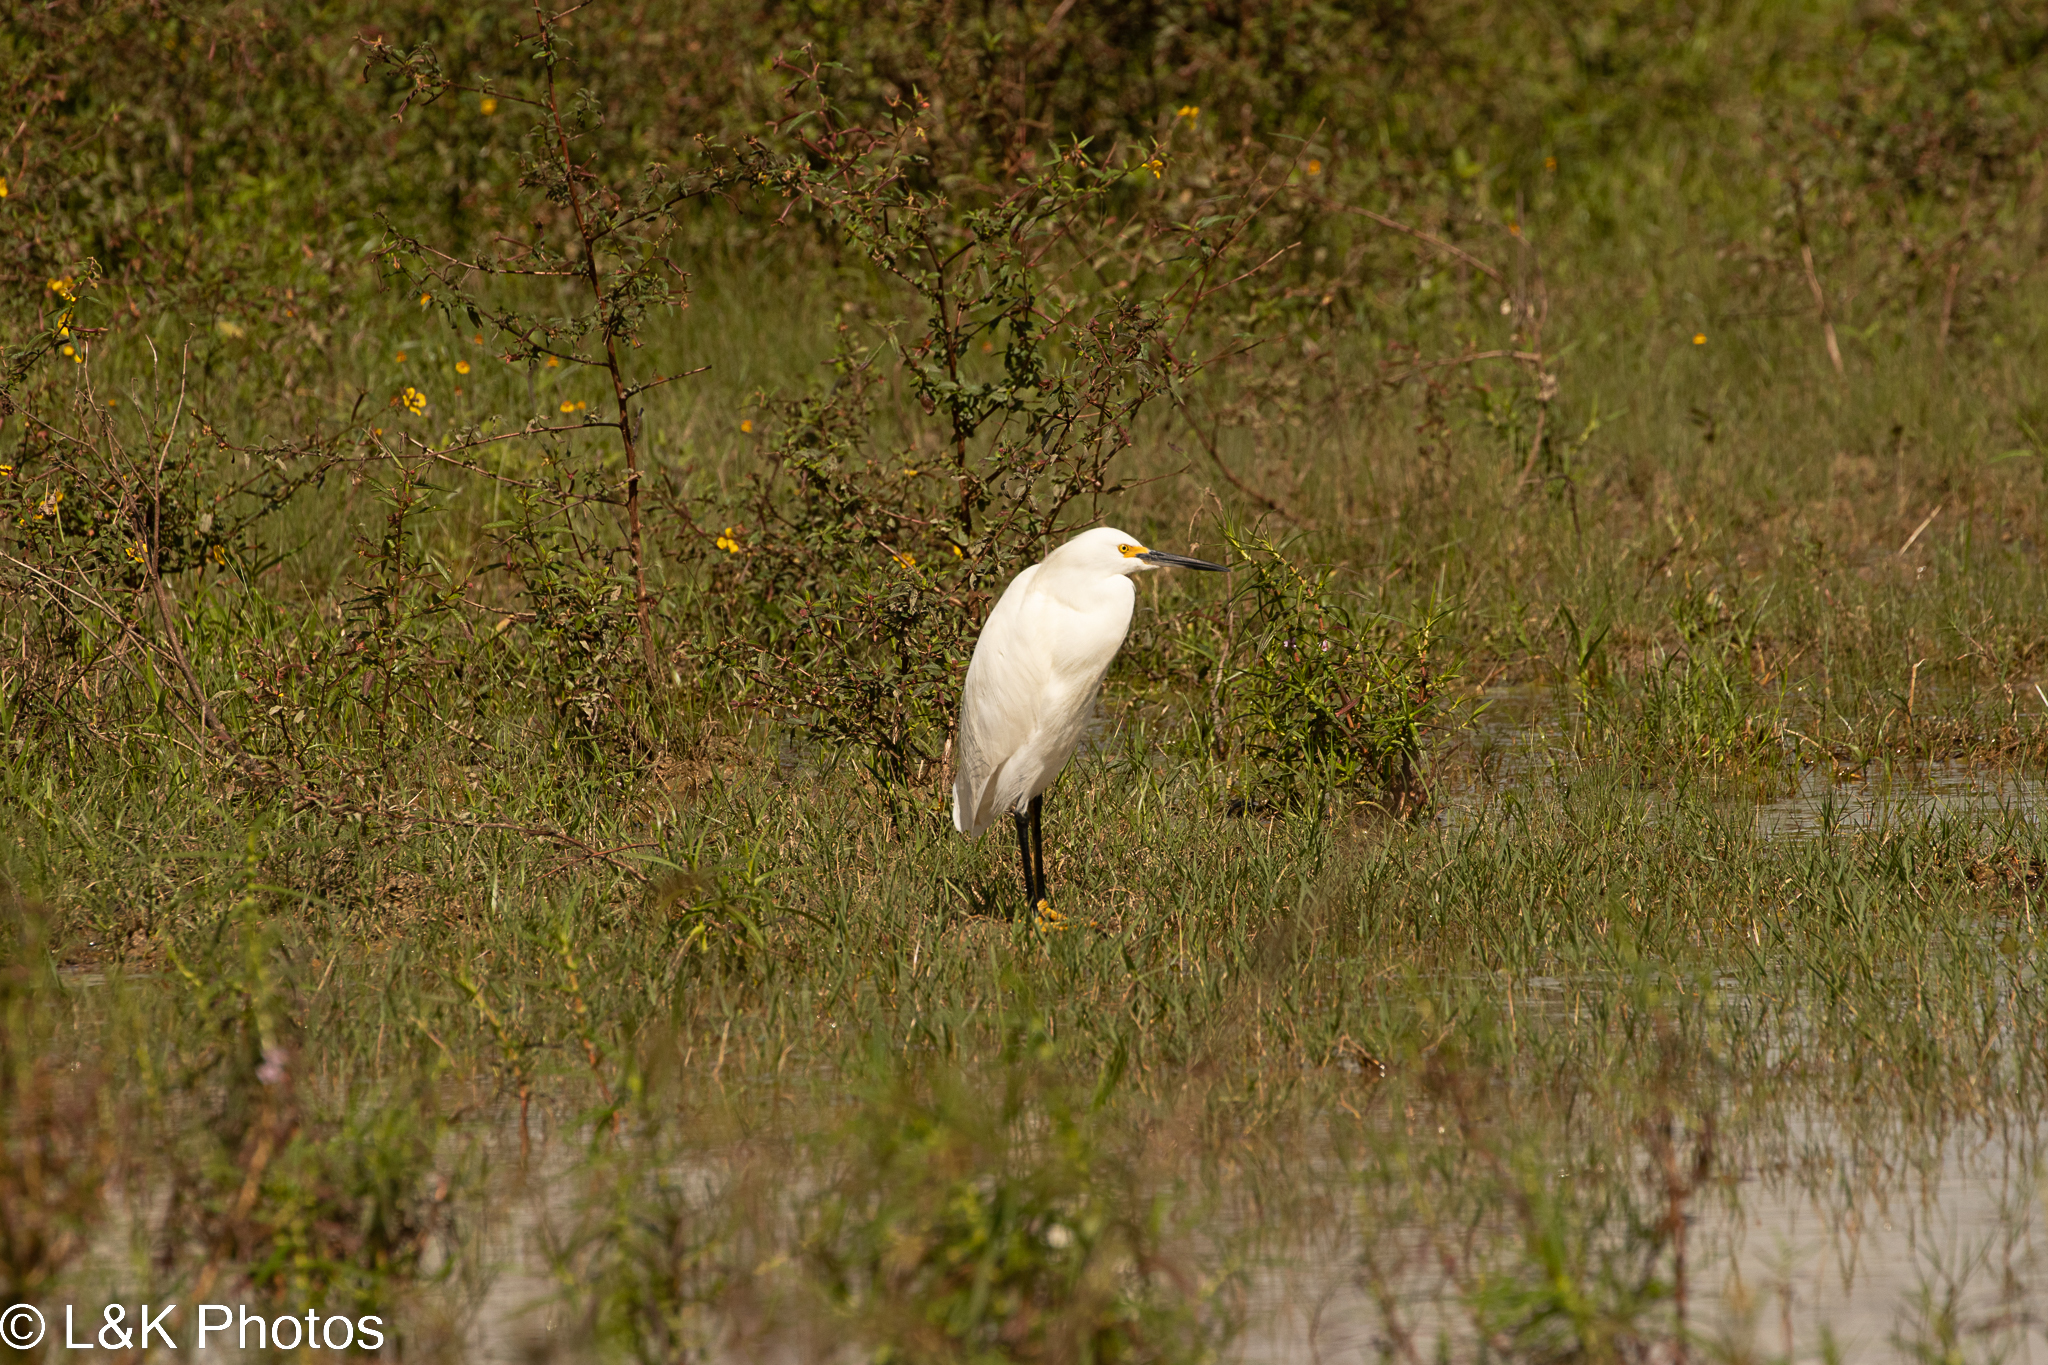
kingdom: Animalia
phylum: Chordata
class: Aves
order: Pelecaniformes
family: Ardeidae
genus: Egretta
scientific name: Egretta thula
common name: Snowy egret
